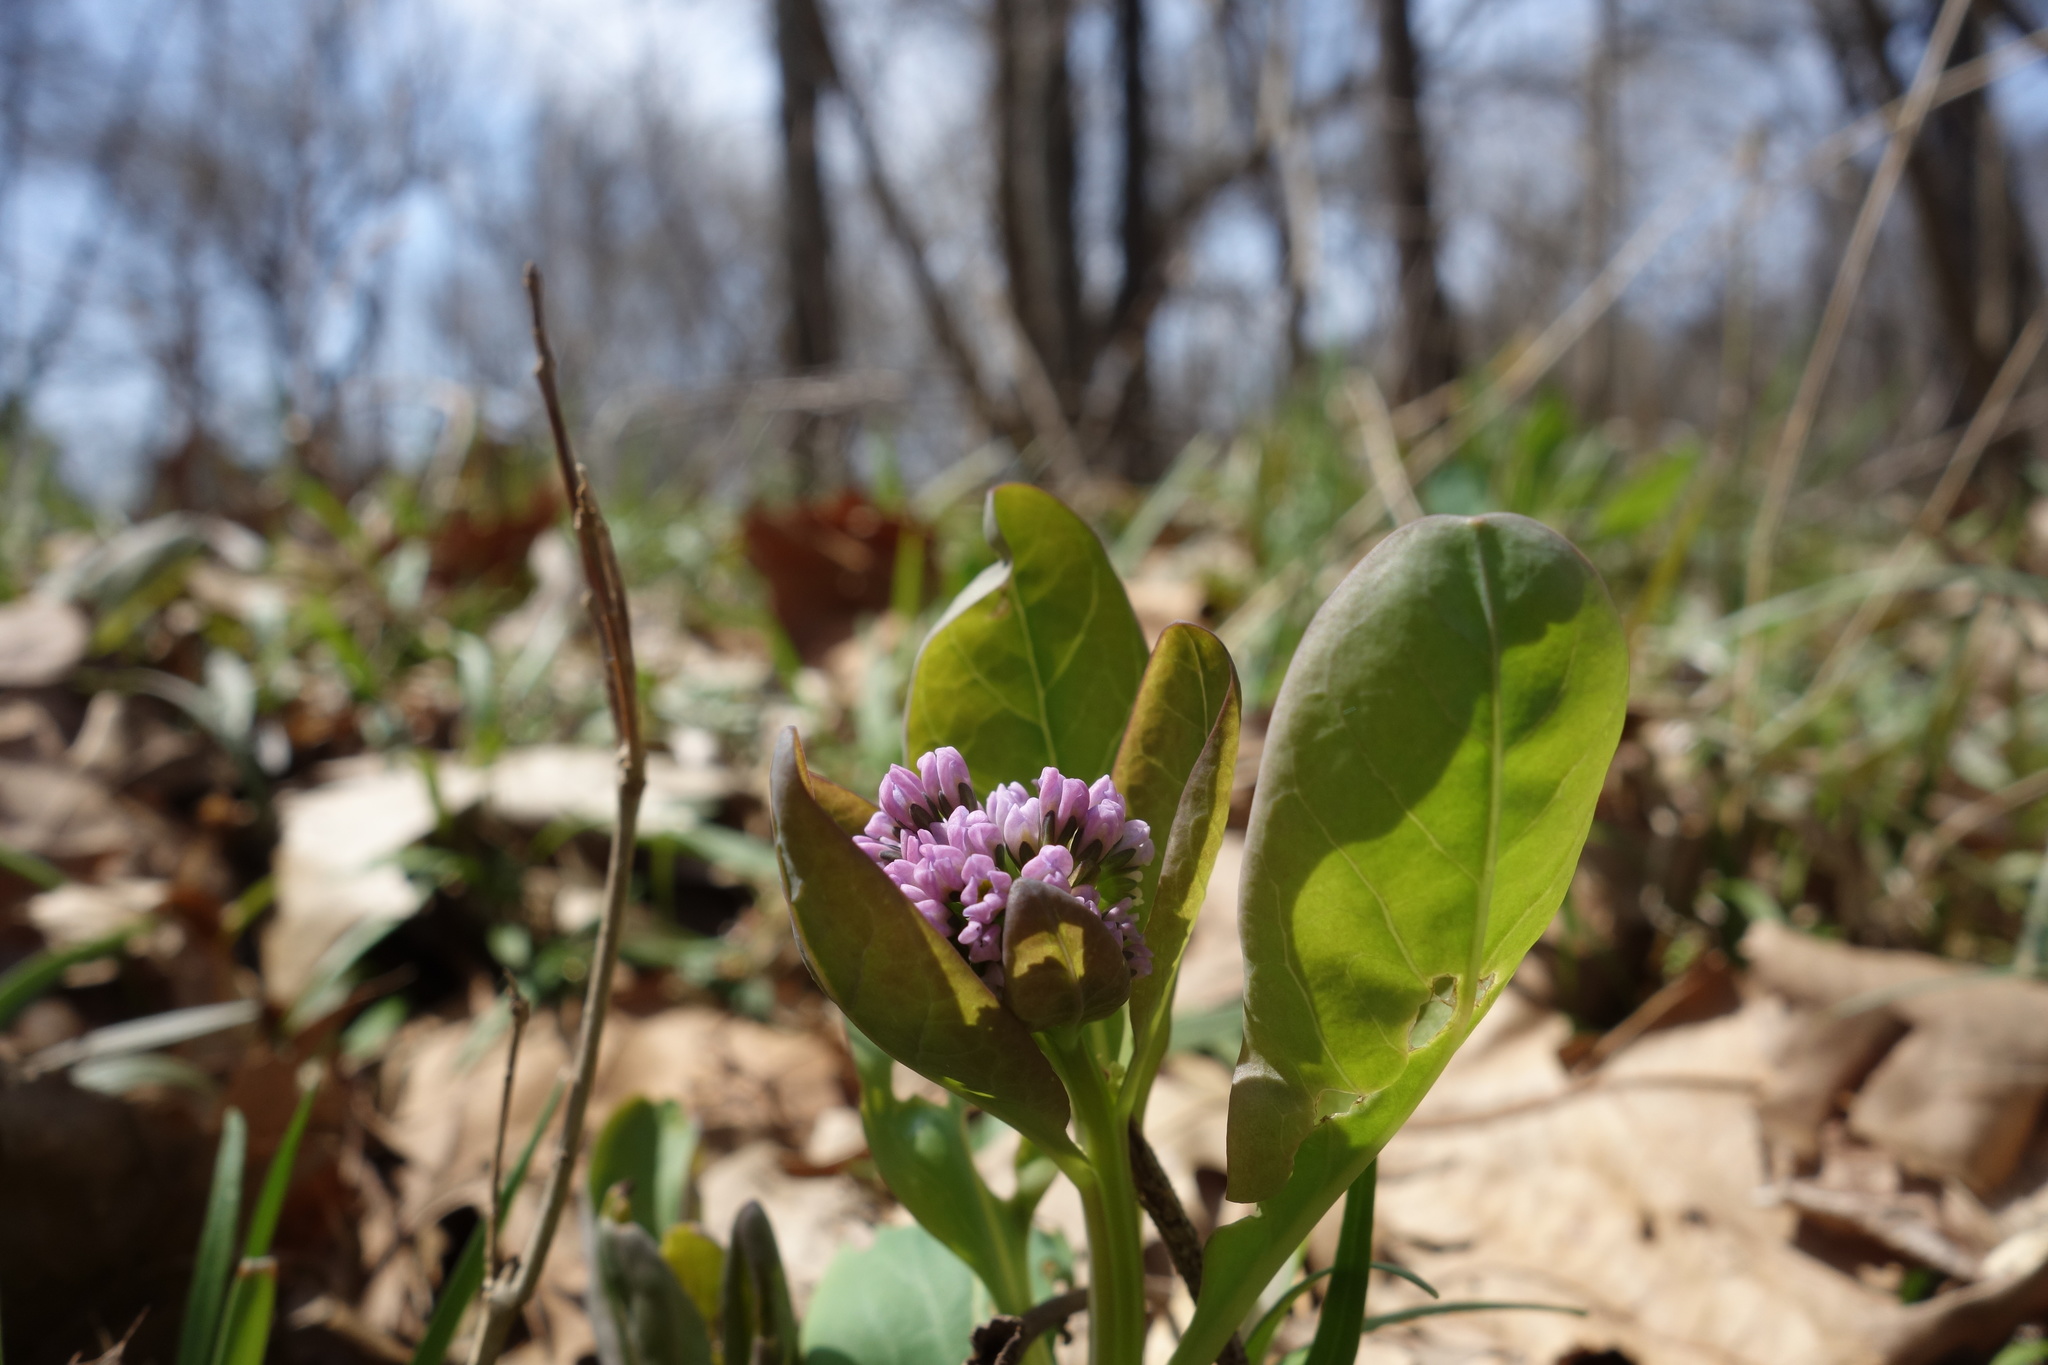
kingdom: Plantae
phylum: Tracheophyta
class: Magnoliopsida
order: Boraginales
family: Boraginaceae
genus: Mertensia
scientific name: Mertensia virginica
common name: Virginia bluebells
